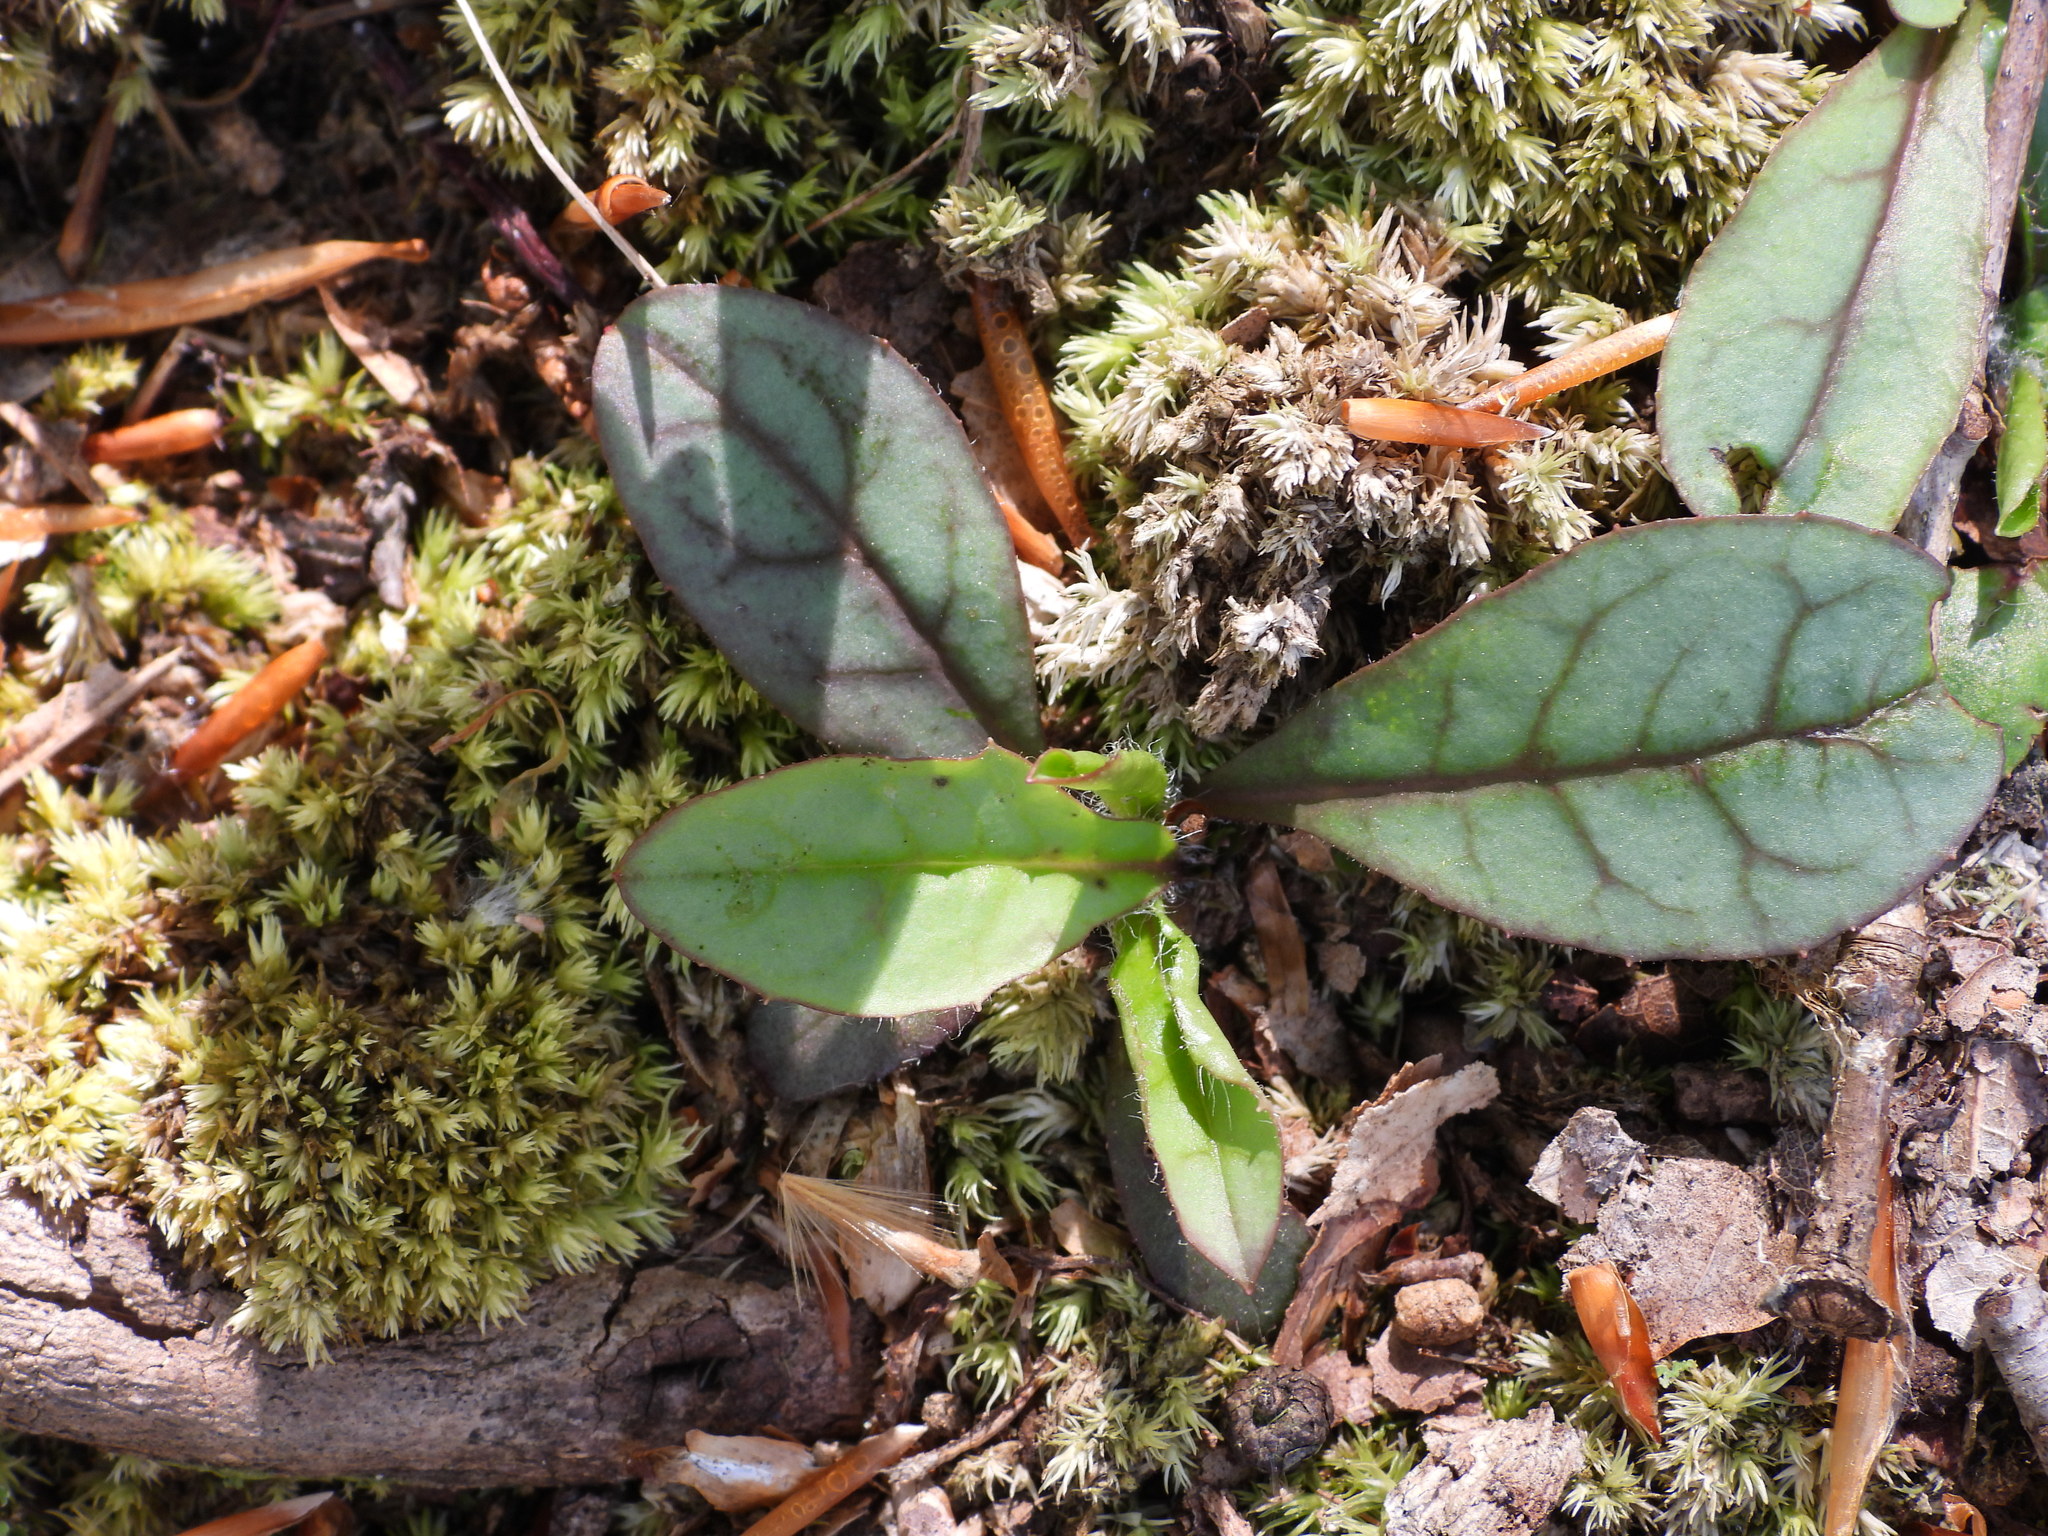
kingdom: Plantae
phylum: Tracheophyta
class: Magnoliopsida
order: Asterales
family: Asteraceae
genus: Hieracium
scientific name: Hieracium venosum
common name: Rattlesnake hawkweed
